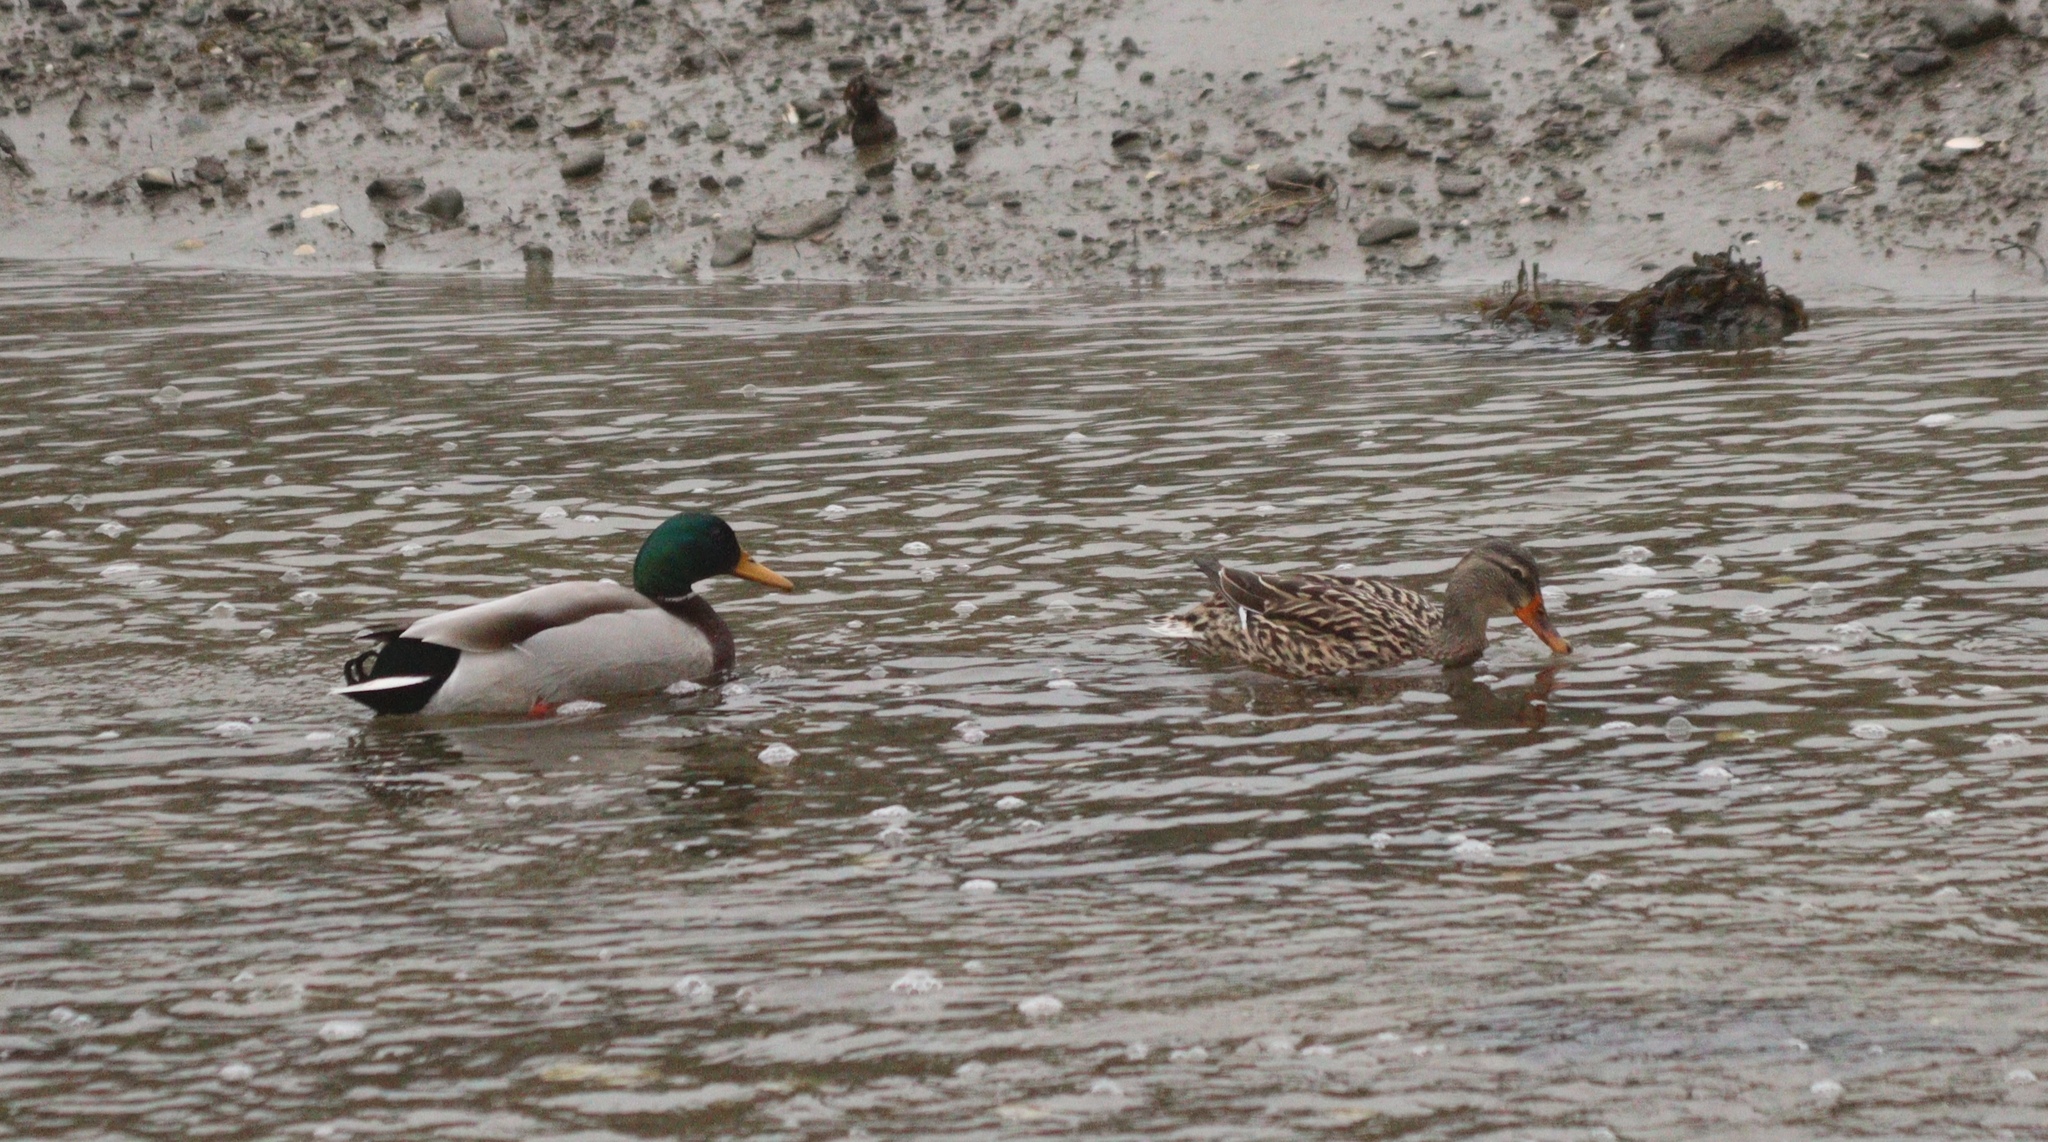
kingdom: Animalia
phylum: Chordata
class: Aves
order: Anseriformes
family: Anatidae
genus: Anas
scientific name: Anas platyrhynchos
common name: Mallard
